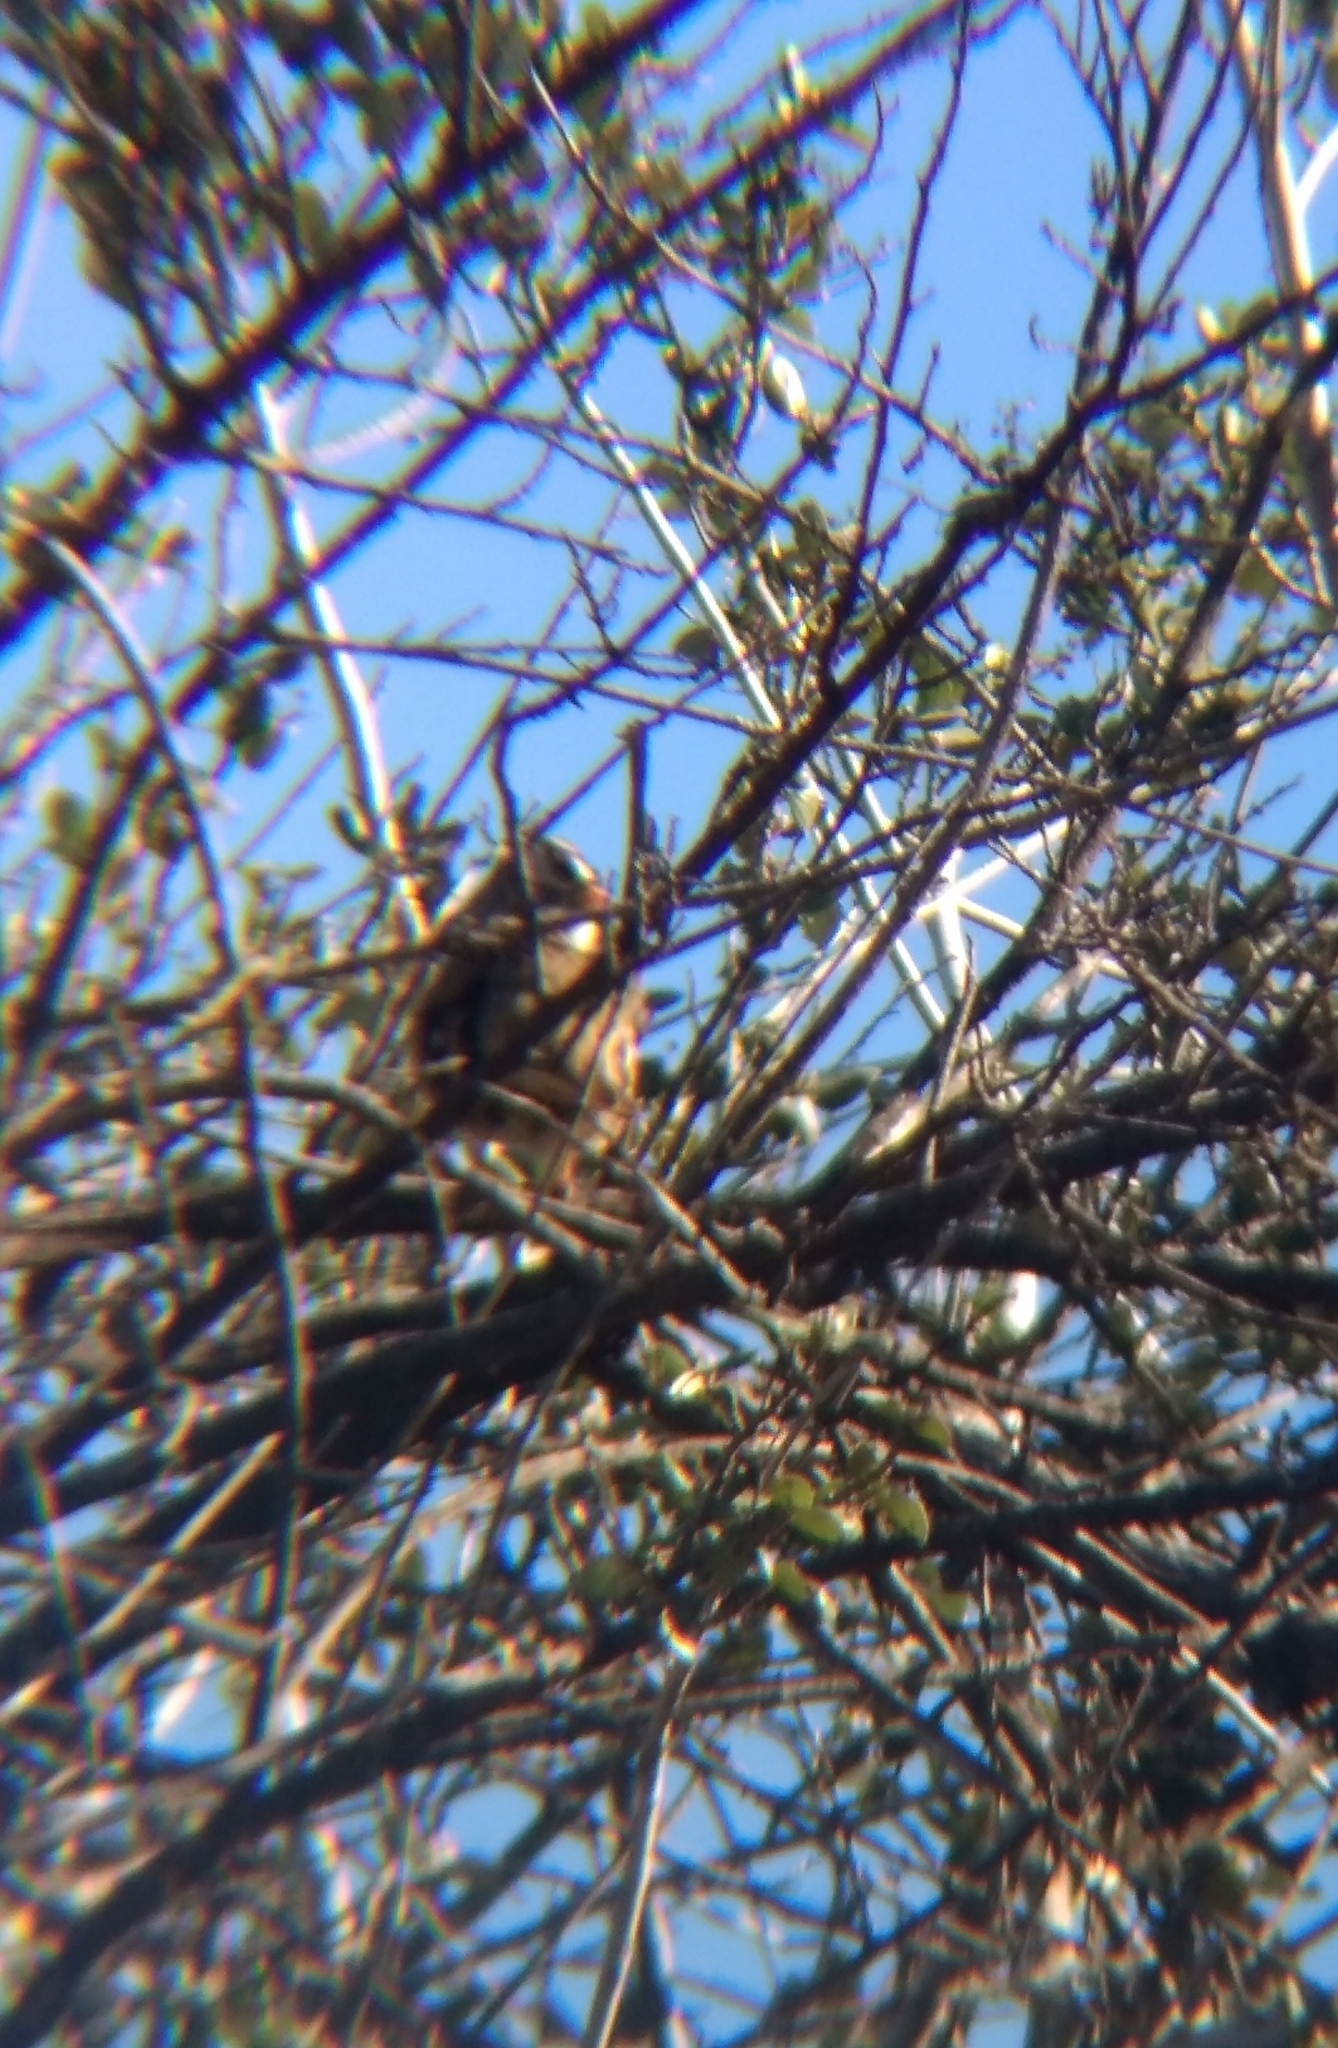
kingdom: Animalia
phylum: Chordata
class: Aves
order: Passeriformes
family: Passerellidae
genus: Zonotrichia
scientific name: Zonotrichia leucophrys
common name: White-crowned sparrow
